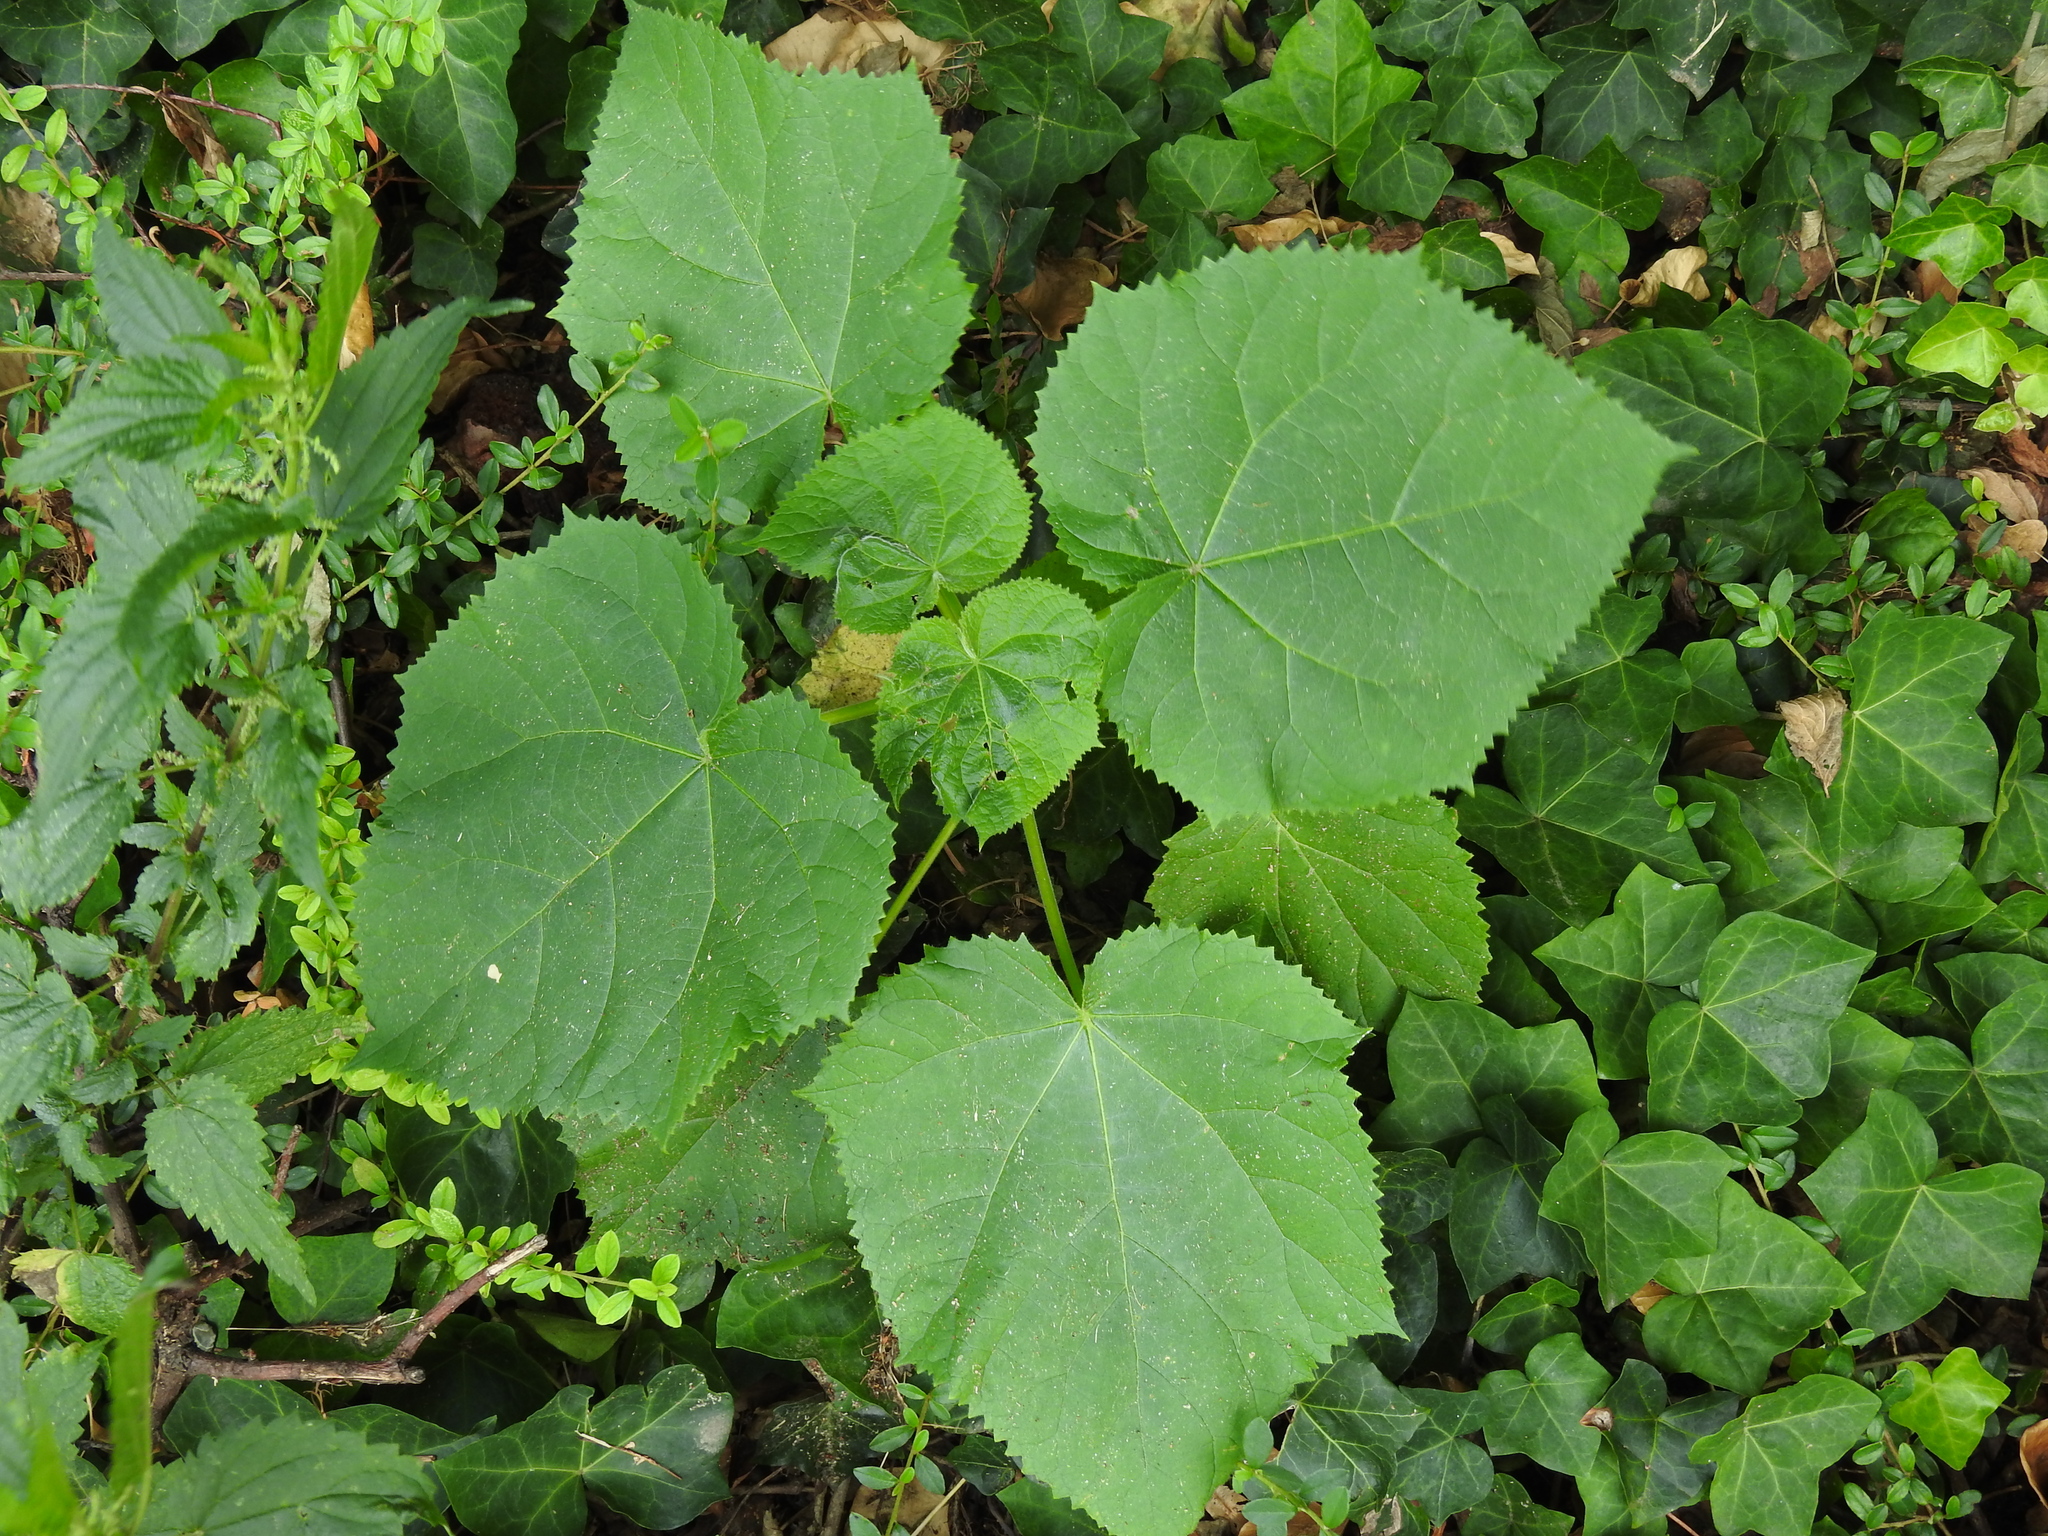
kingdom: Plantae
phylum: Tracheophyta
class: Magnoliopsida
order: Lamiales
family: Paulowniaceae
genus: Paulownia
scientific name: Paulownia tomentosa
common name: Foxglove-tree
